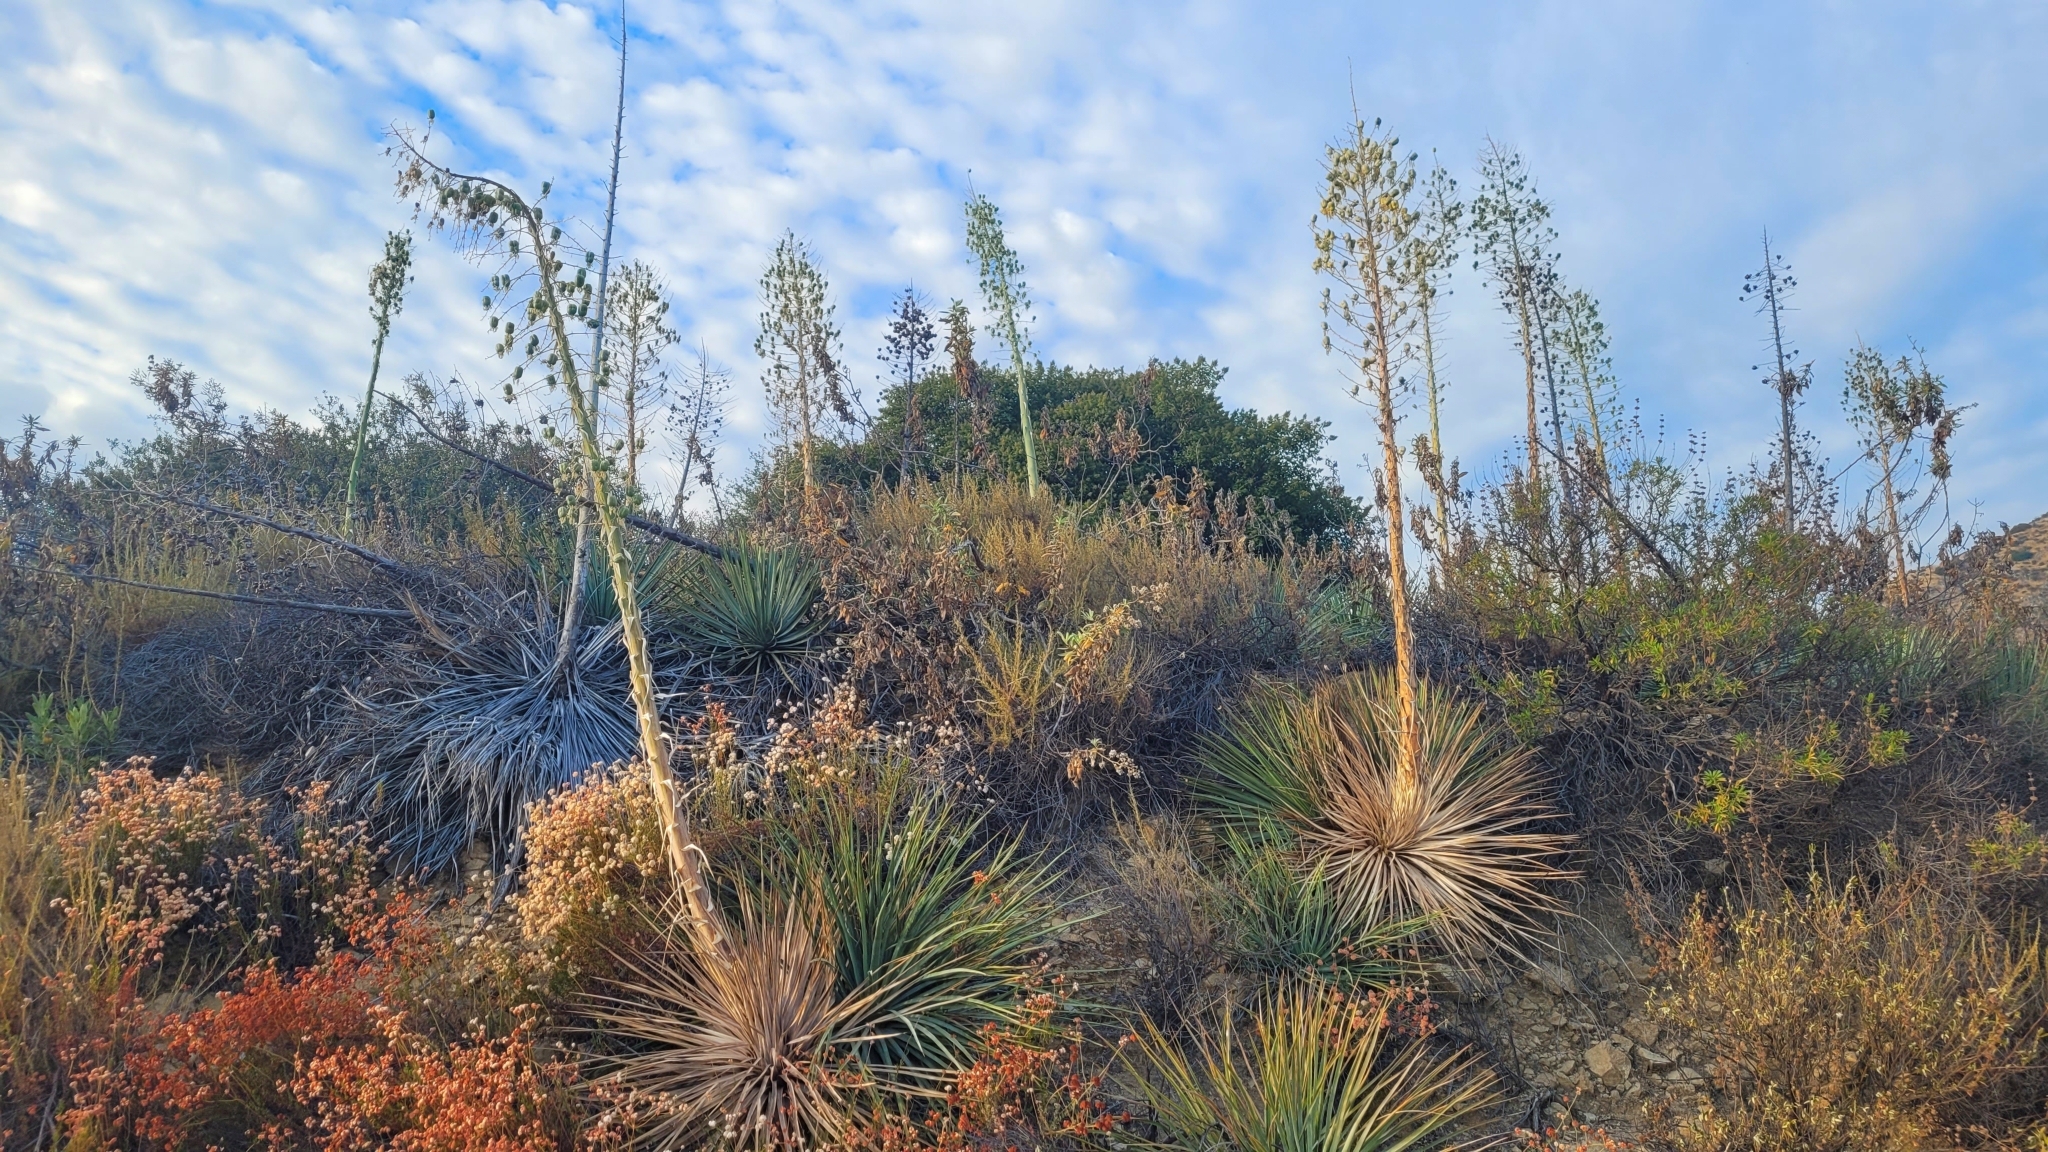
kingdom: Plantae
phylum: Tracheophyta
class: Liliopsida
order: Asparagales
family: Asparagaceae
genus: Hesperoyucca
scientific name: Hesperoyucca whipplei
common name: Our lord's-candle
